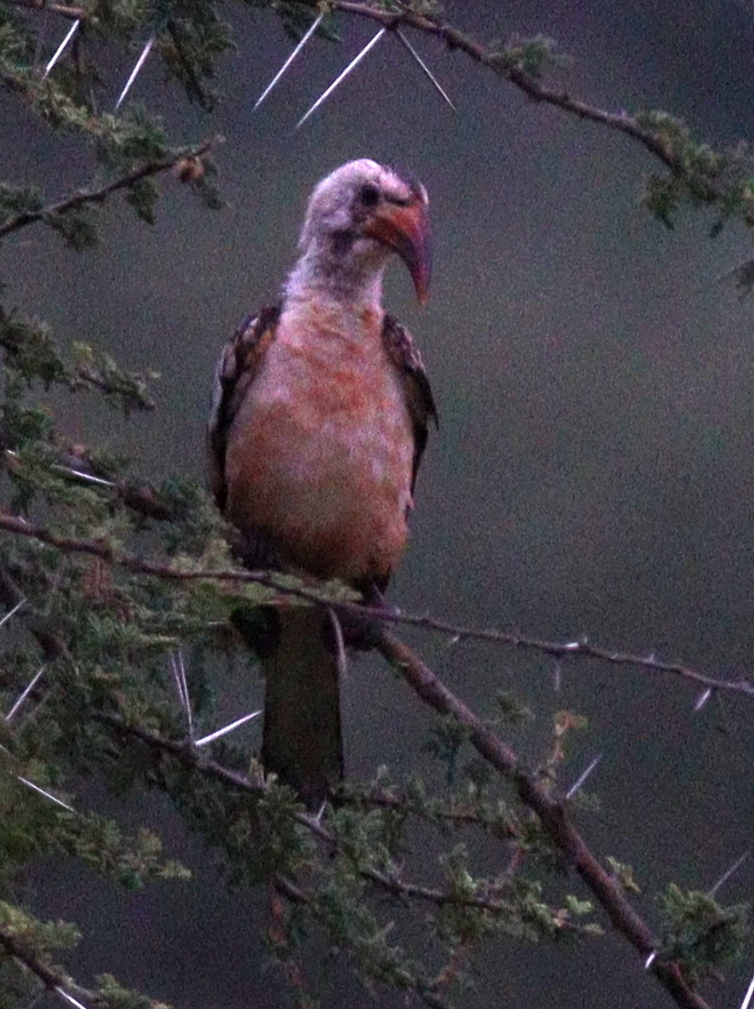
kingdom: Animalia
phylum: Chordata
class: Aves
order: Bucerotiformes
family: Bucerotidae
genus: Tockus
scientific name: Tockus erythrorhynchus
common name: Northern red-billed hornbill
